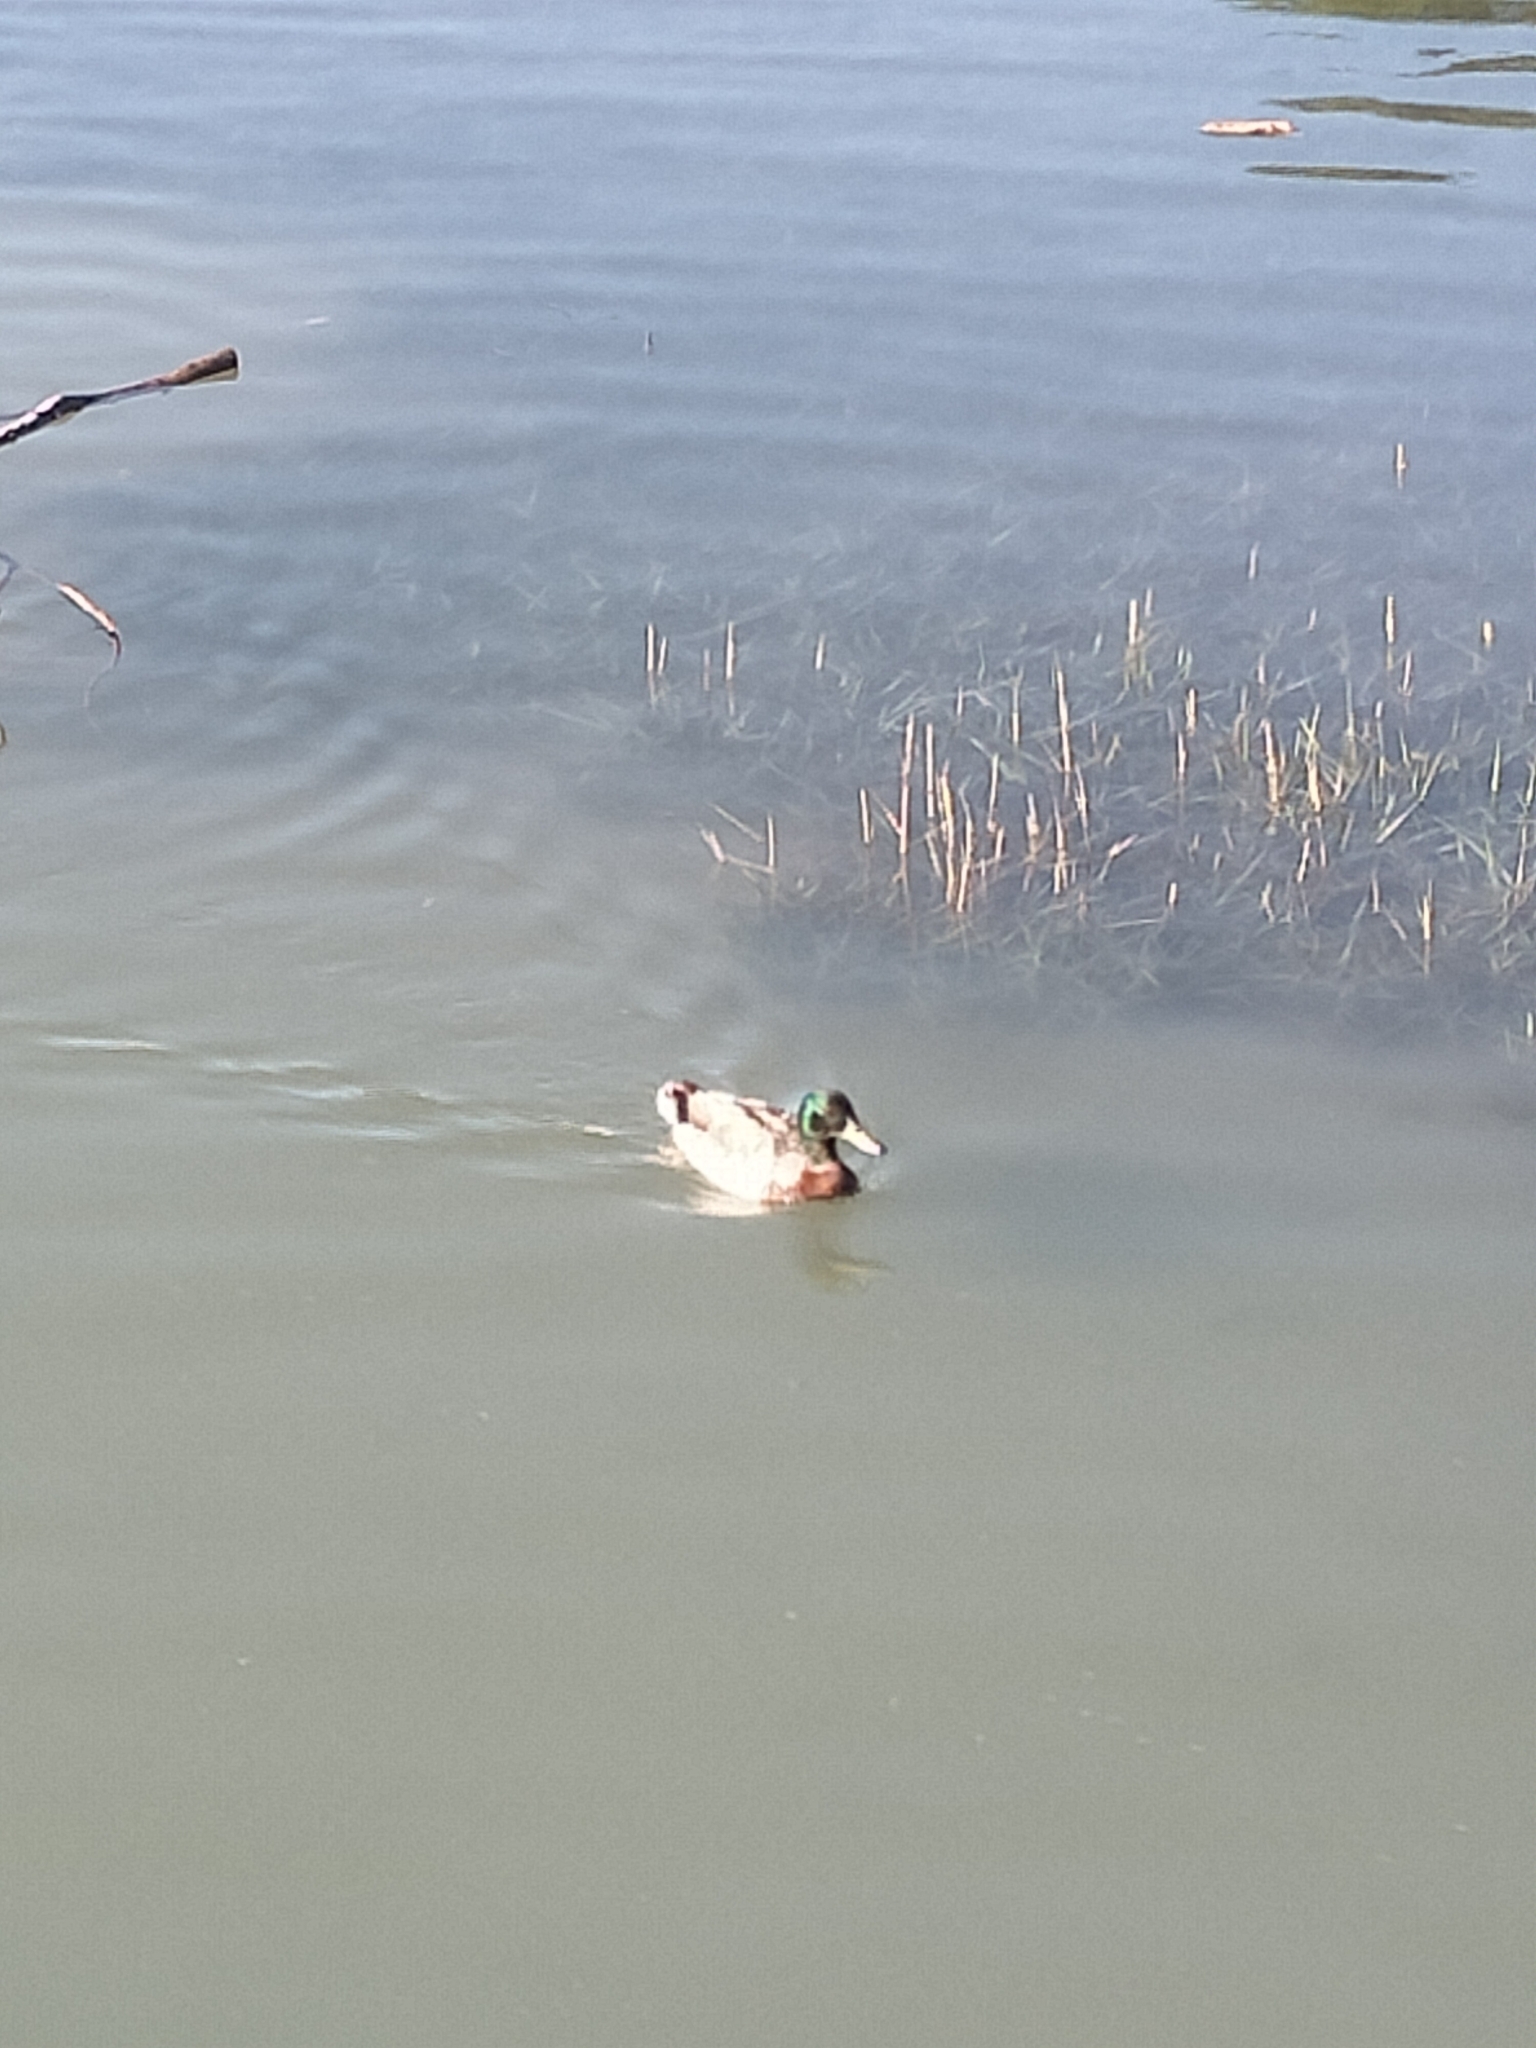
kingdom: Animalia
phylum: Chordata
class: Aves
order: Anseriformes
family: Anatidae
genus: Anas
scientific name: Anas
